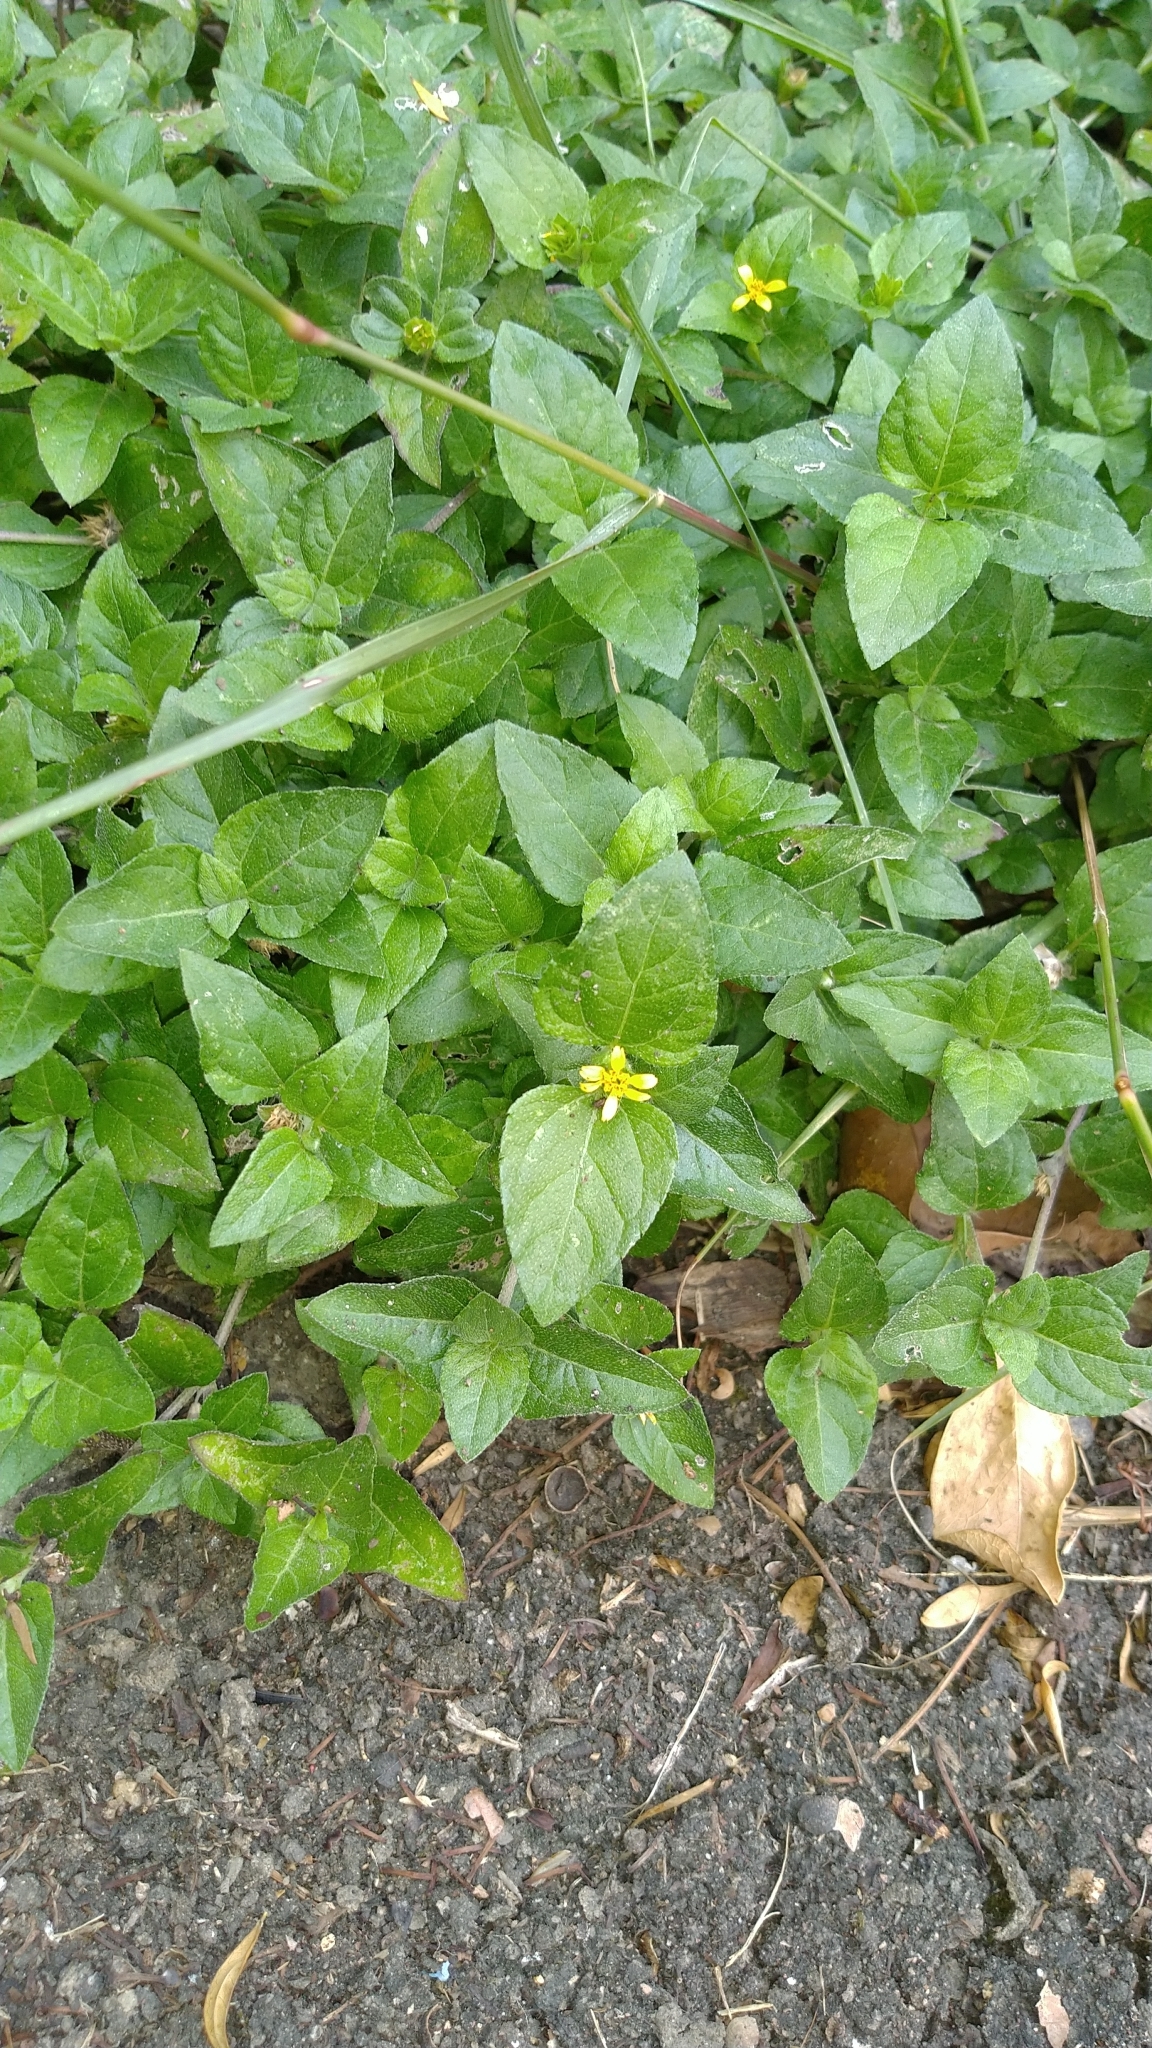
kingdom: Plantae
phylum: Tracheophyta
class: Magnoliopsida
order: Asterales
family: Asteraceae
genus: Calyptocarpus
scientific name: Calyptocarpus vialis
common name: Straggler daisy
